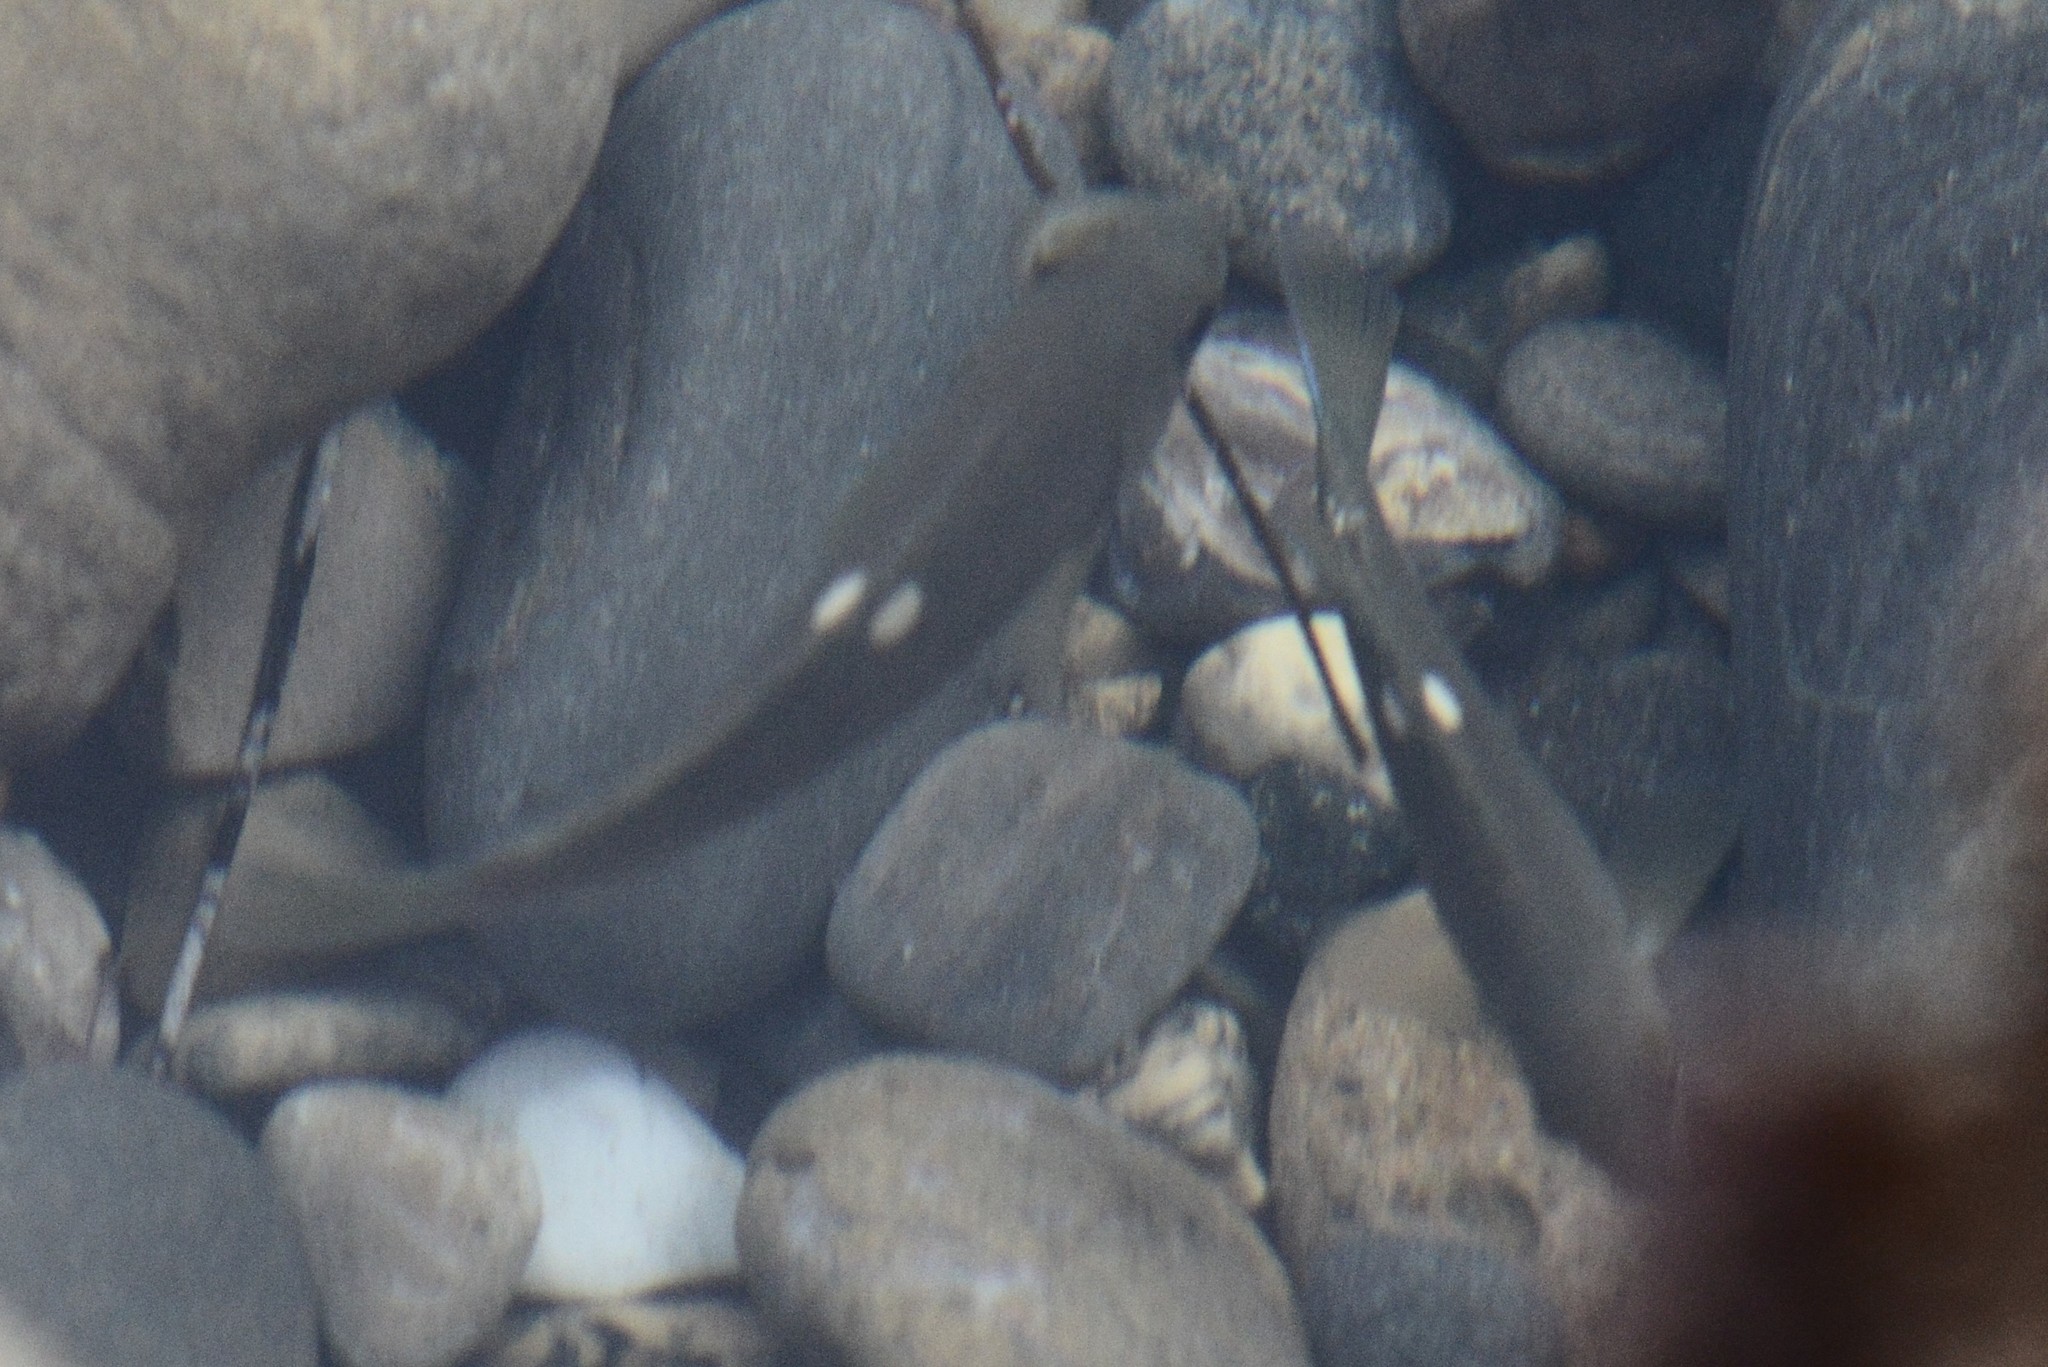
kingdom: Animalia
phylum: Chordata
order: Perciformes
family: Kyphosidae
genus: Girella
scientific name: Girella nigricans
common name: Opaleye
